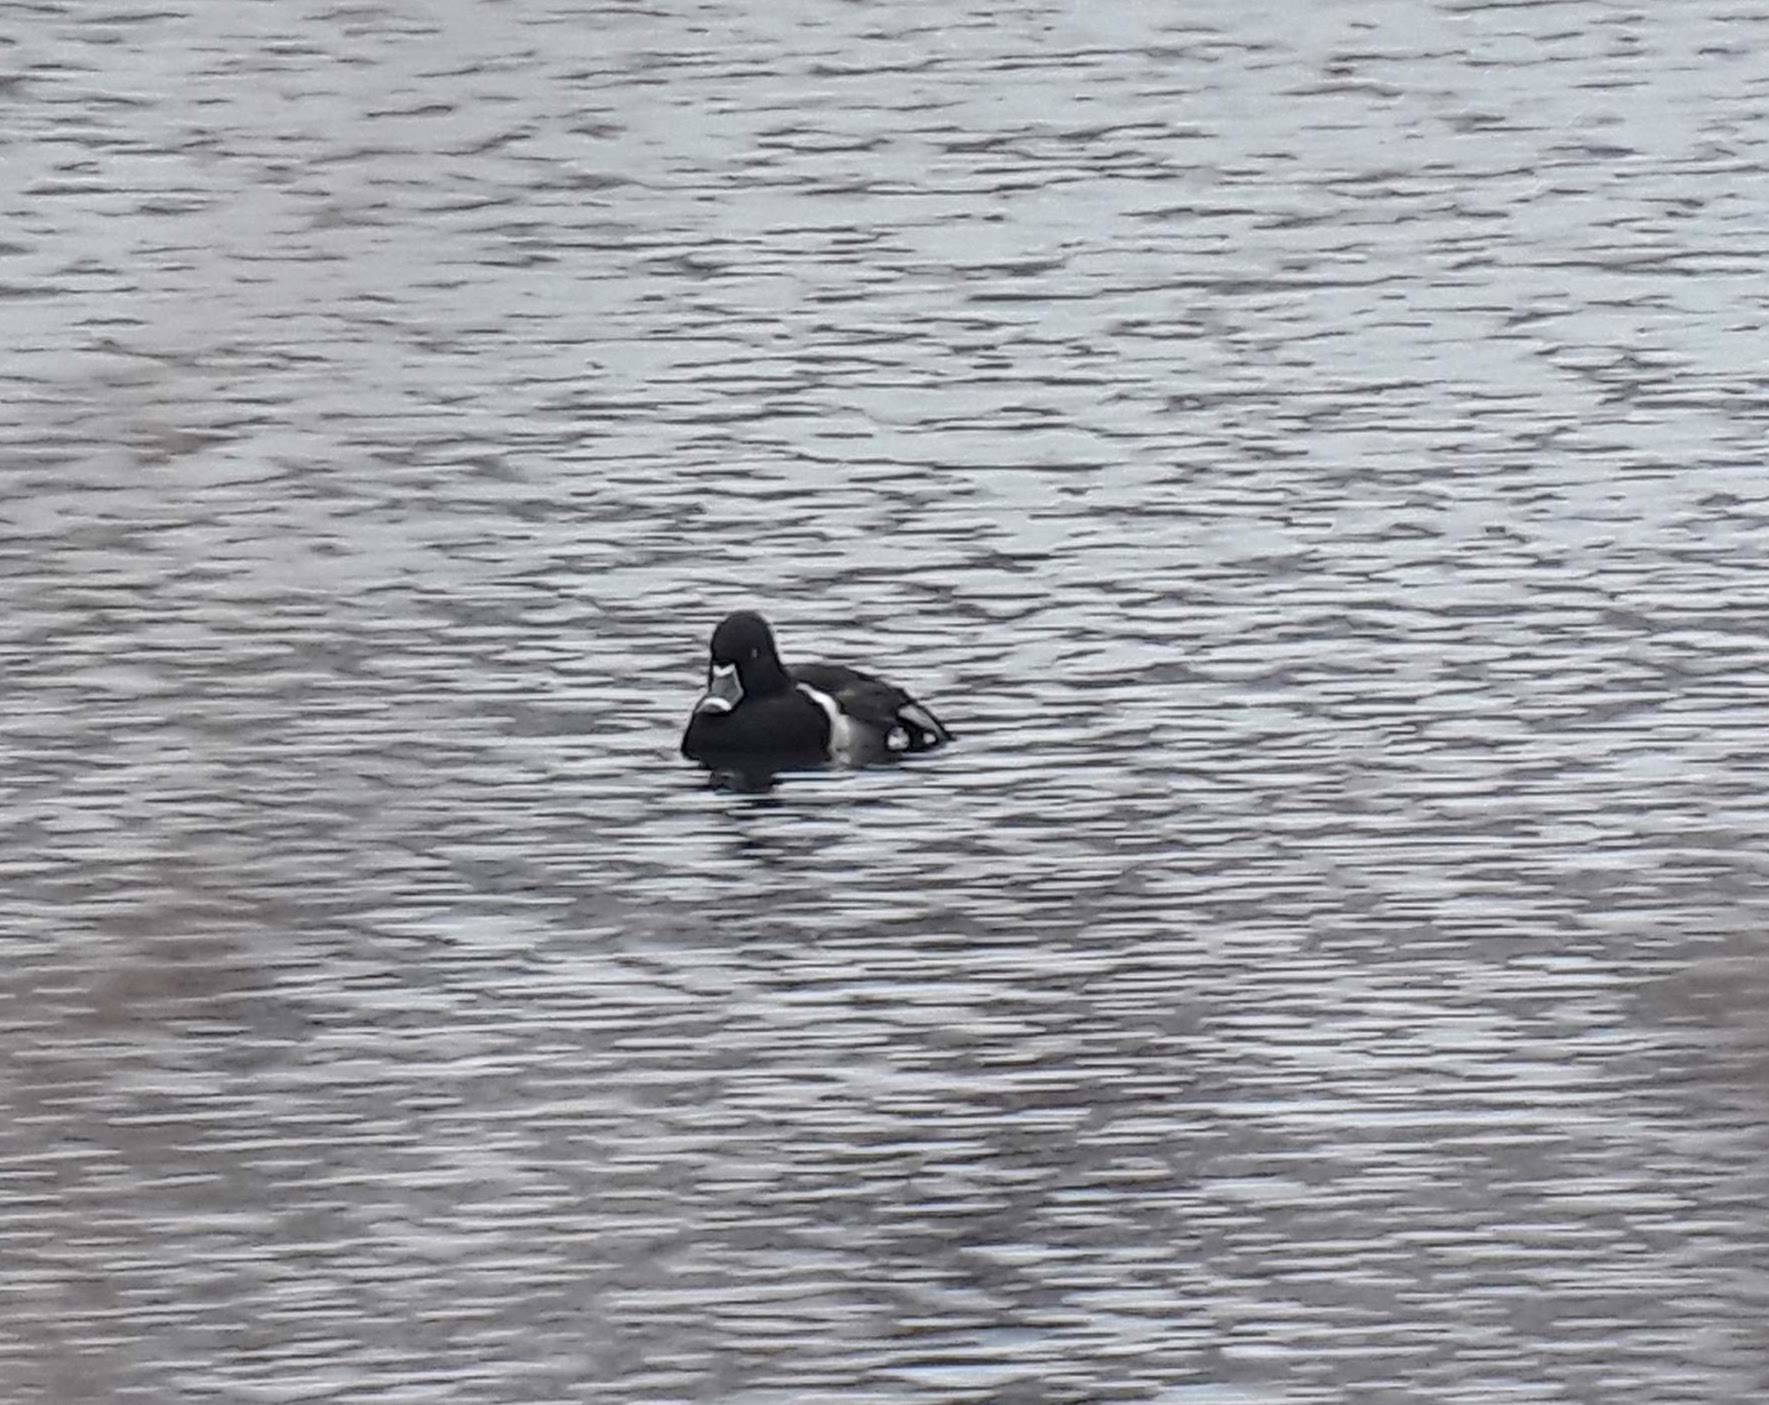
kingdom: Animalia
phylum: Chordata
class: Aves
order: Anseriformes
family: Anatidae
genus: Aythya
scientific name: Aythya collaris
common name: Ring-necked duck
